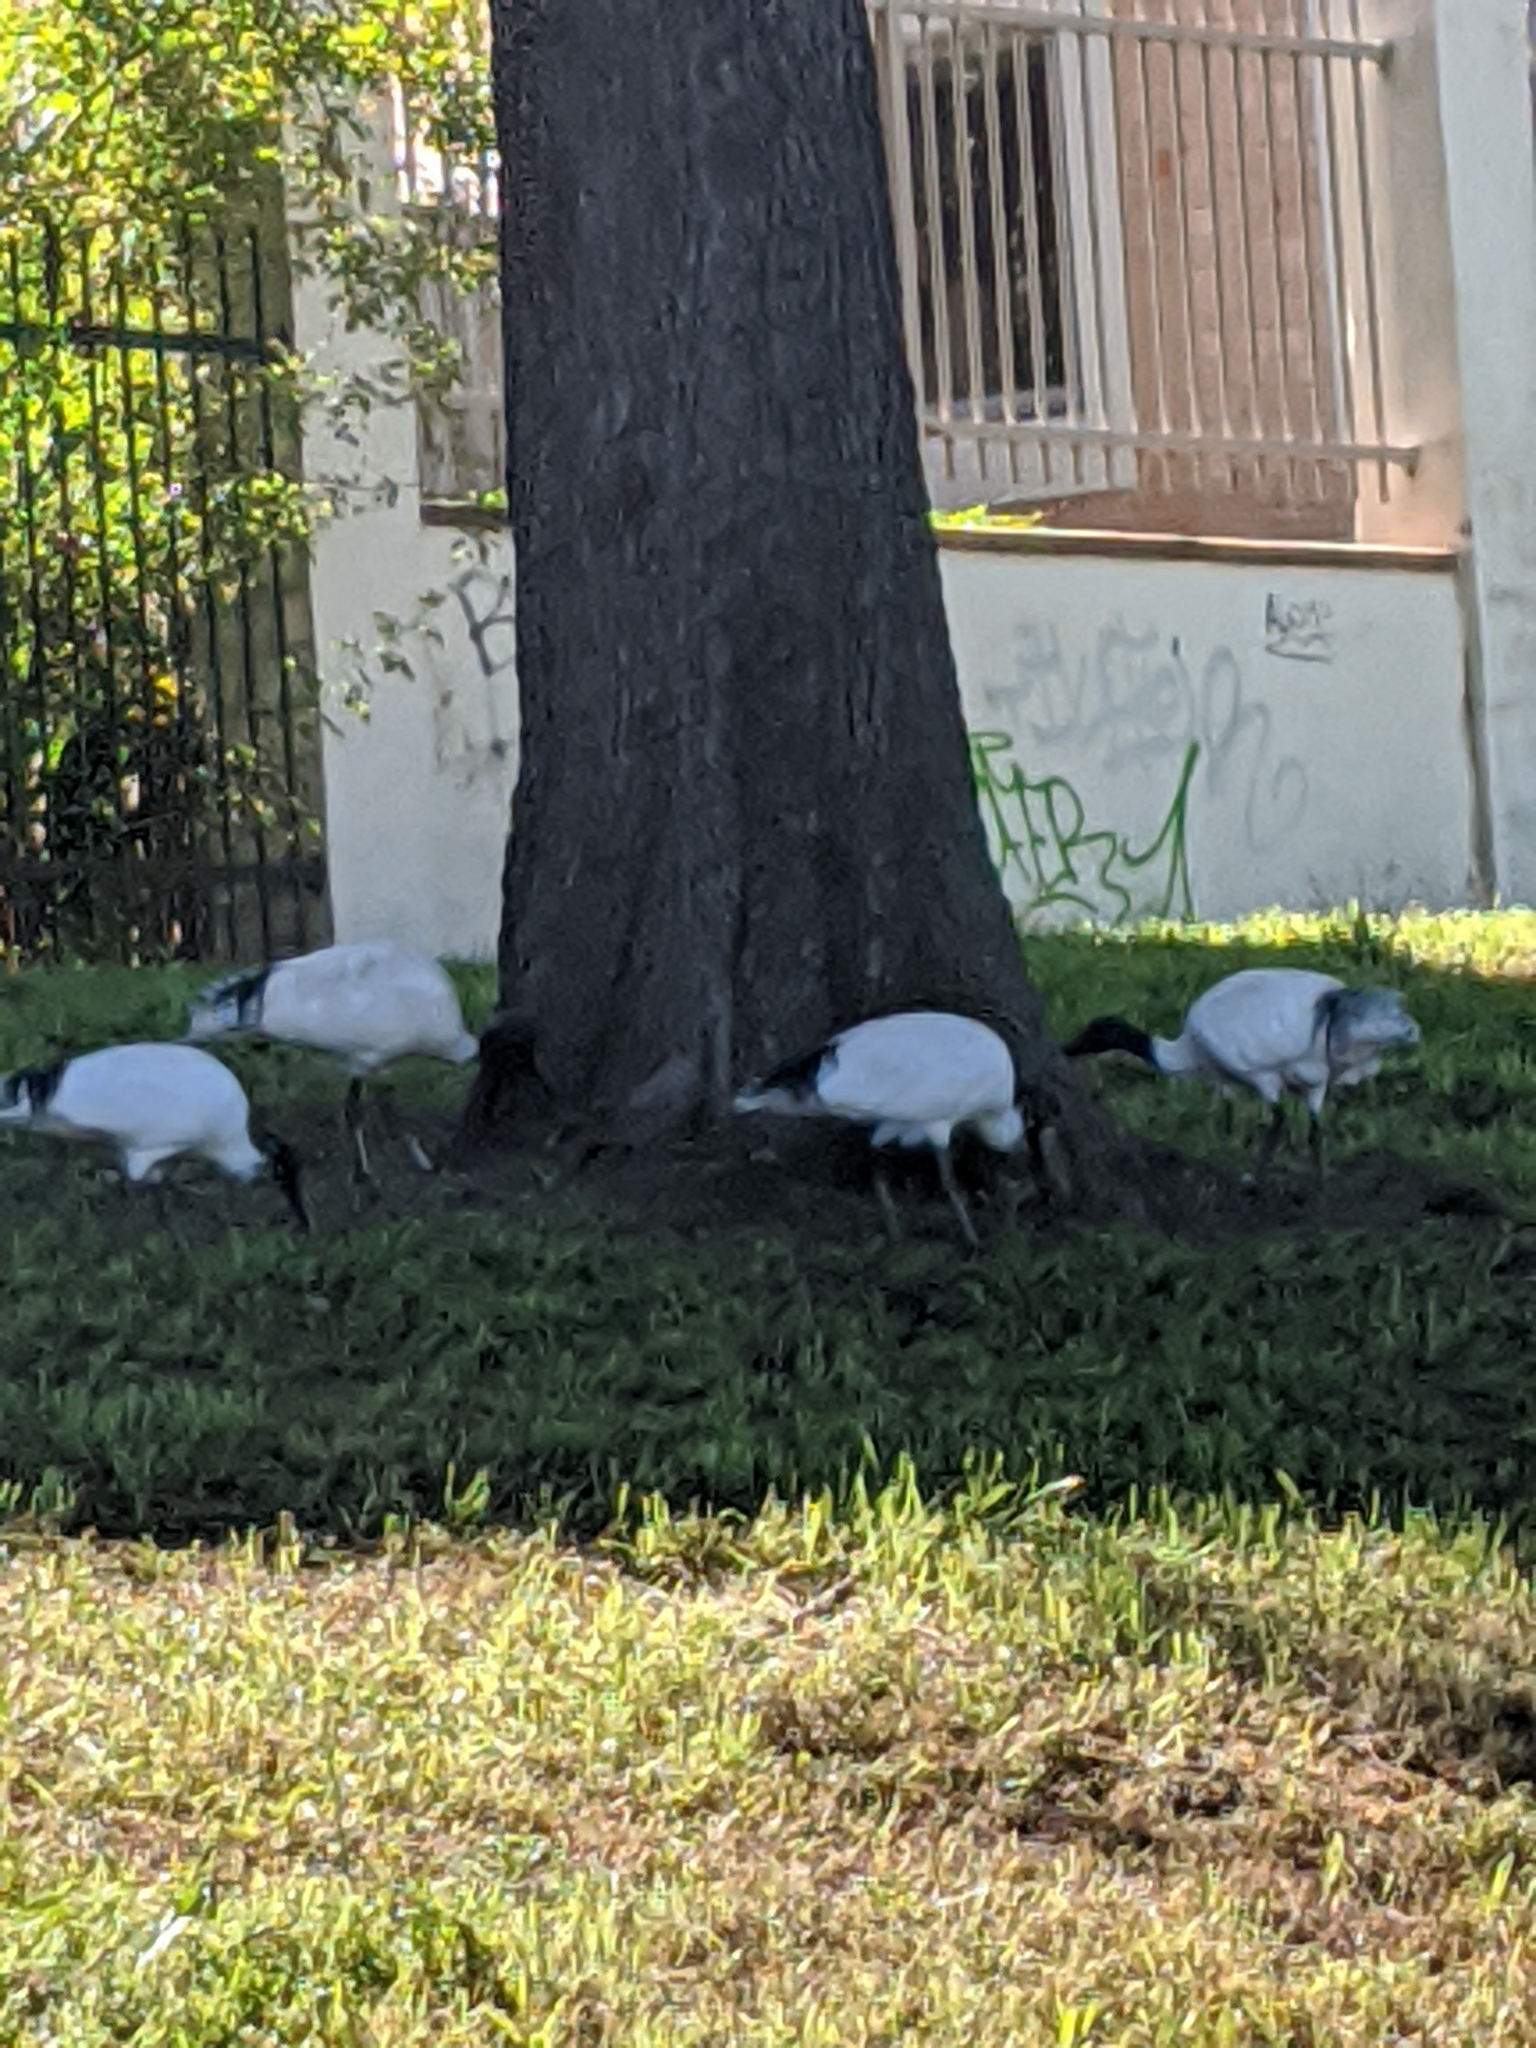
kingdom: Animalia
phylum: Chordata
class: Aves
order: Pelecaniformes
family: Threskiornithidae
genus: Threskiornis
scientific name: Threskiornis molucca
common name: Australian white ibis
